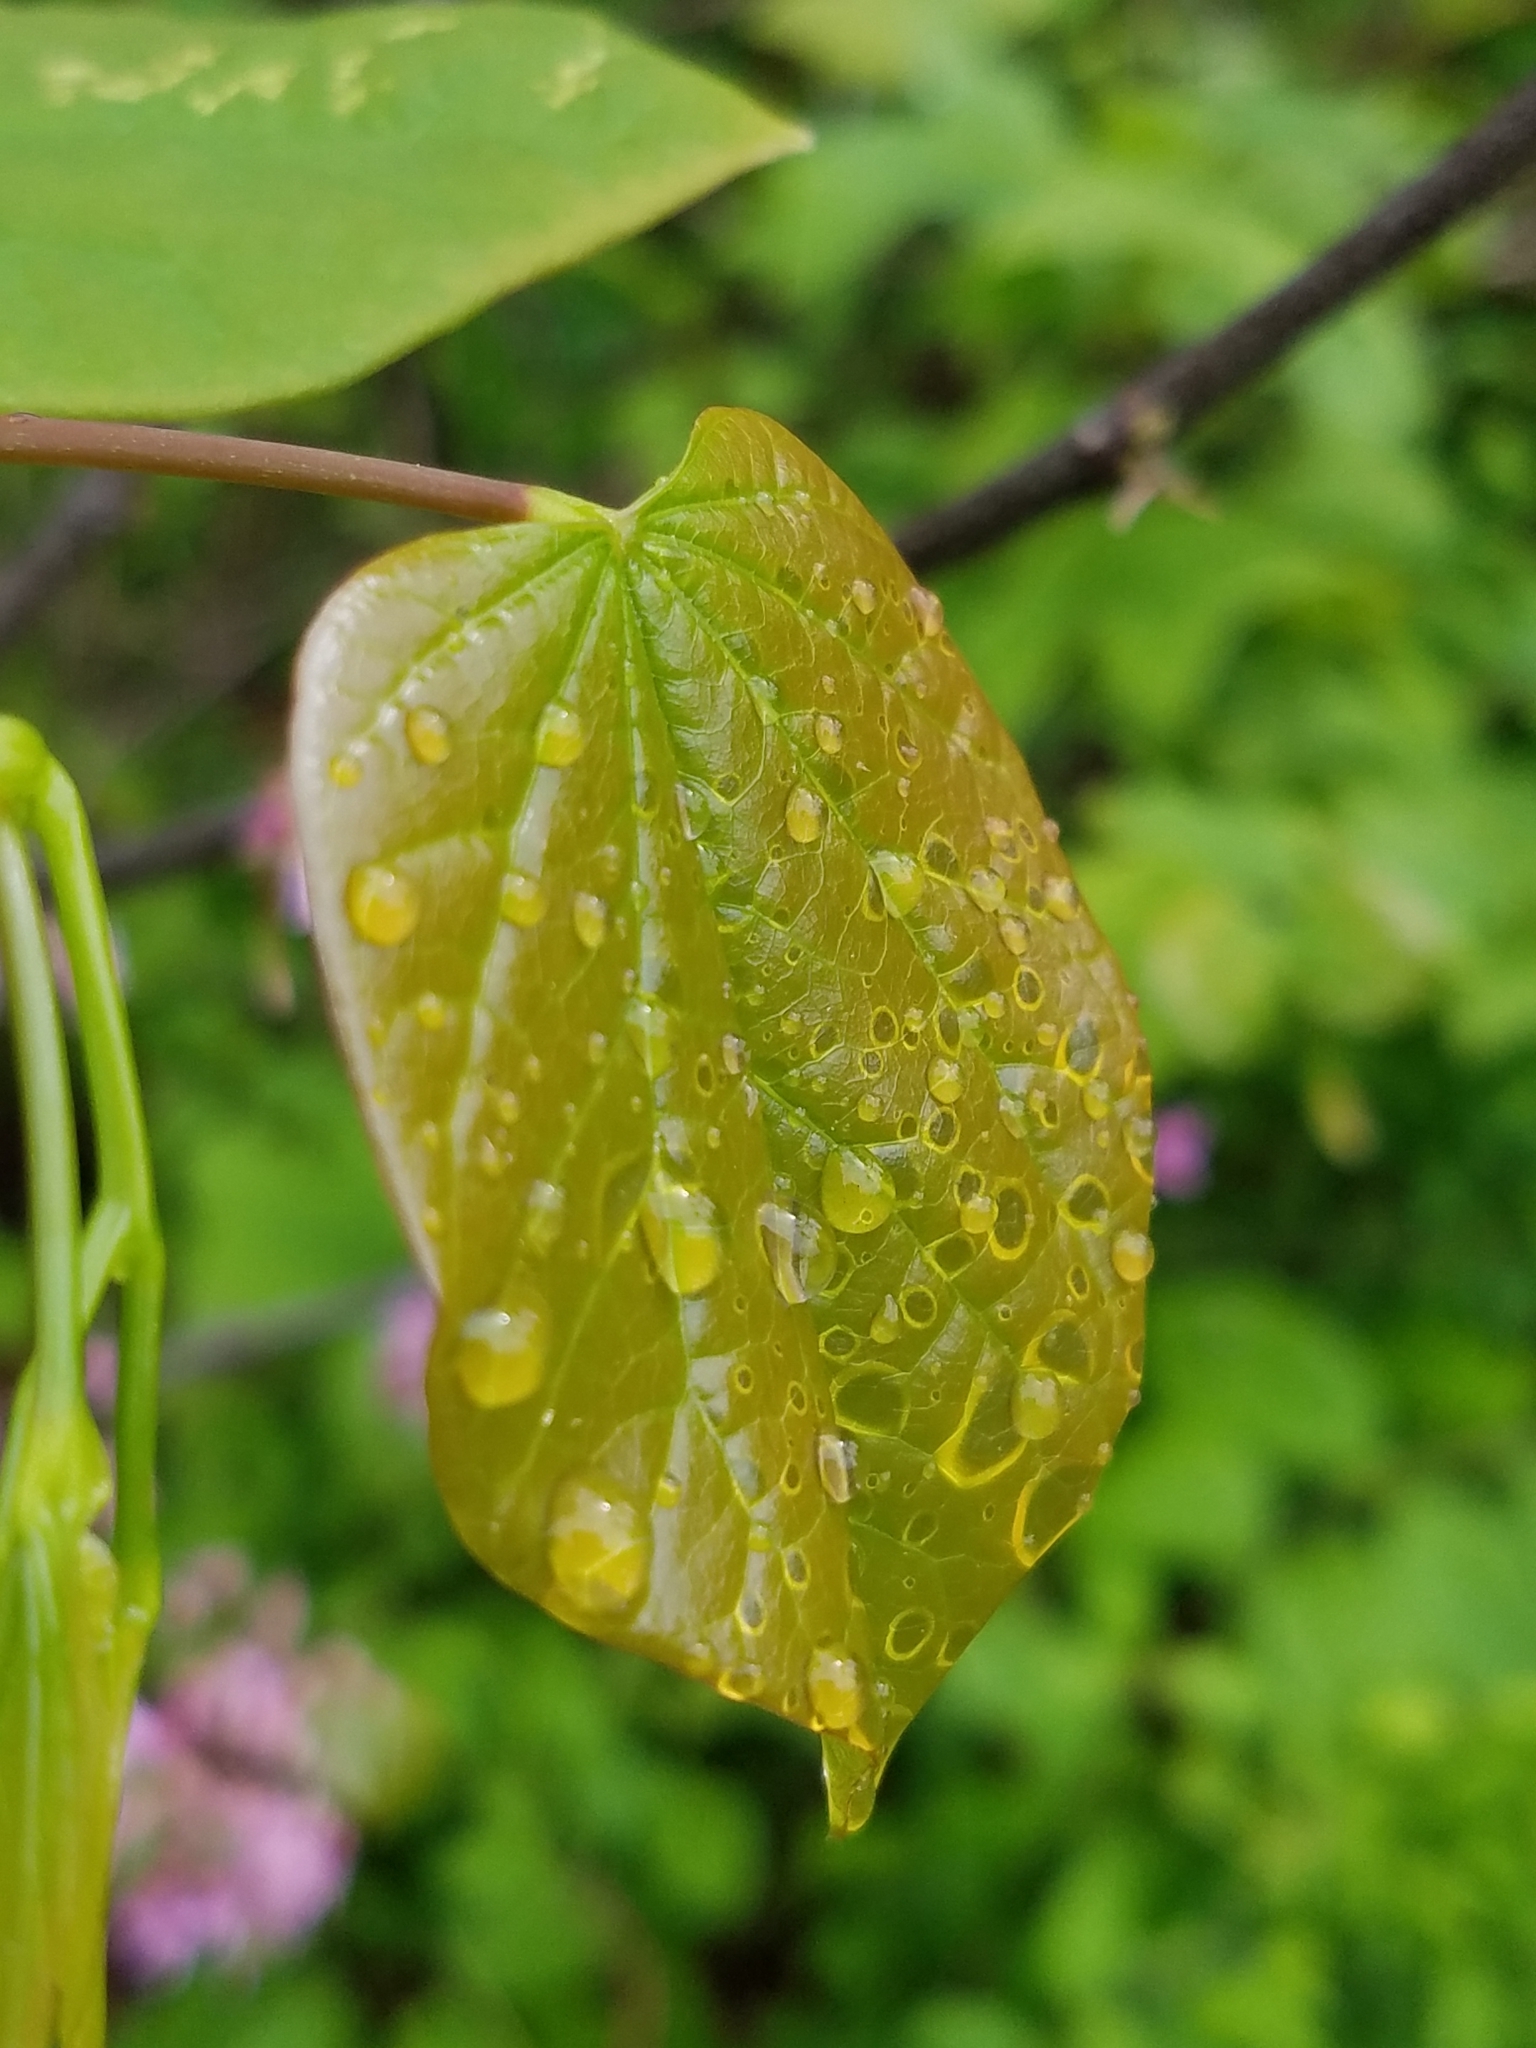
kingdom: Plantae
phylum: Tracheophyta
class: Magnoliopsida
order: Fabales
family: Fabaceae
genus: Cercis
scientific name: Cercis canadensis
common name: Eastern redbud
